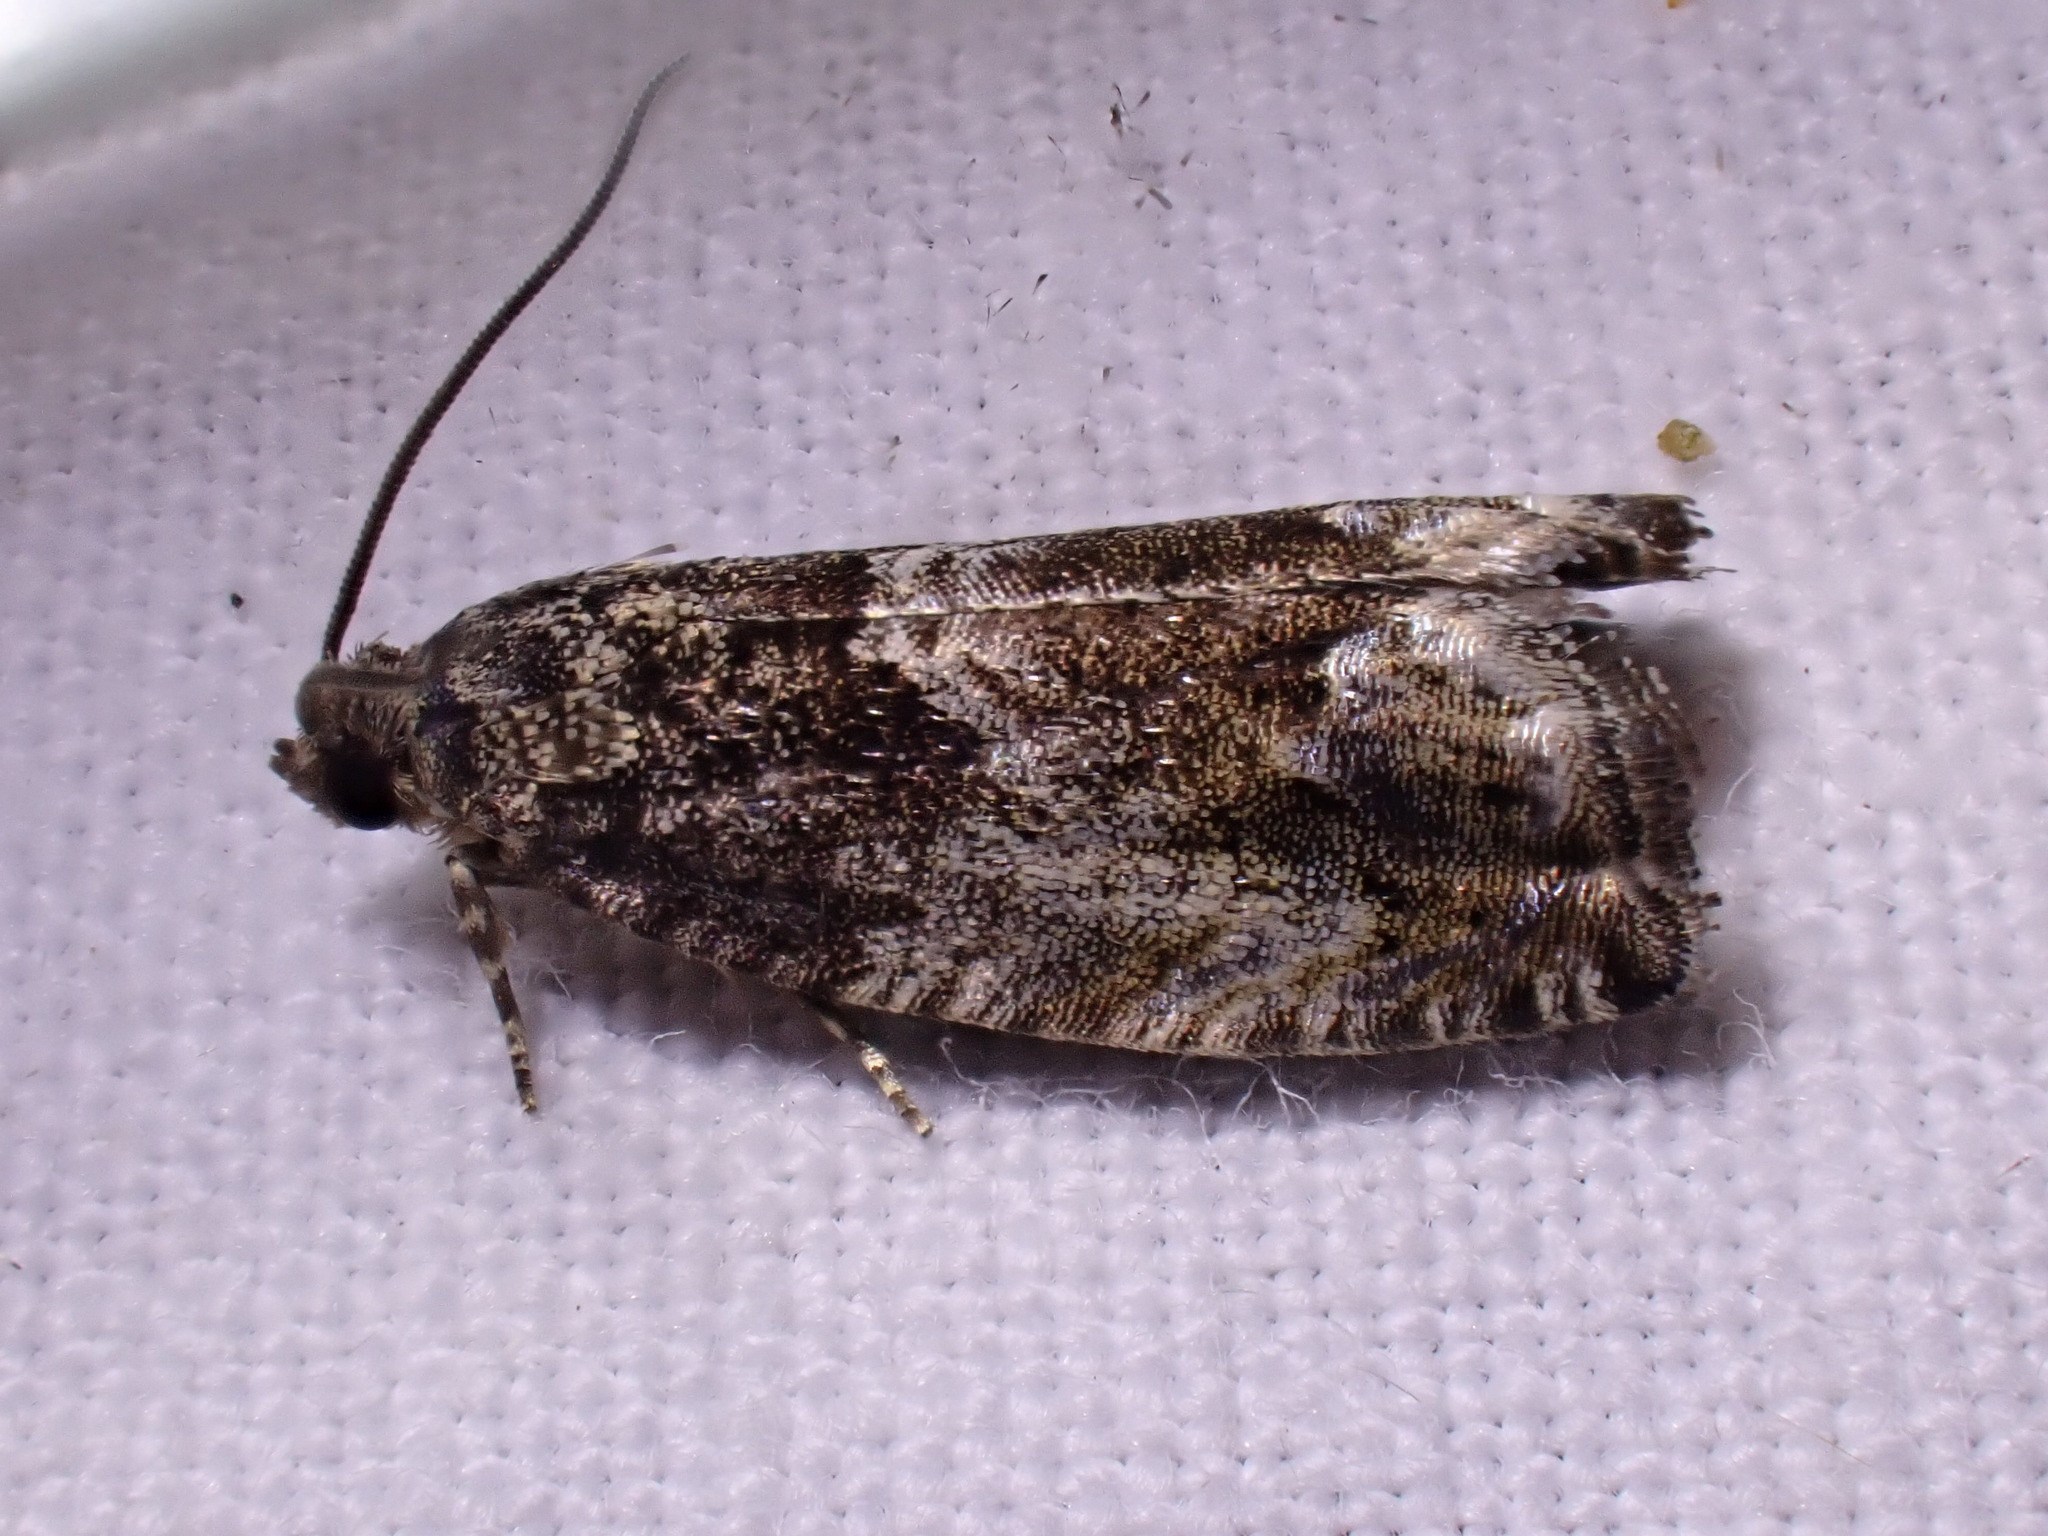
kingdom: Animalia
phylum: Arthropoda
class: Insecta
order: Lepidoptera
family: Tortricidae
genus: Cydia
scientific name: Cydia fagiglandana
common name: Large beech piercer
